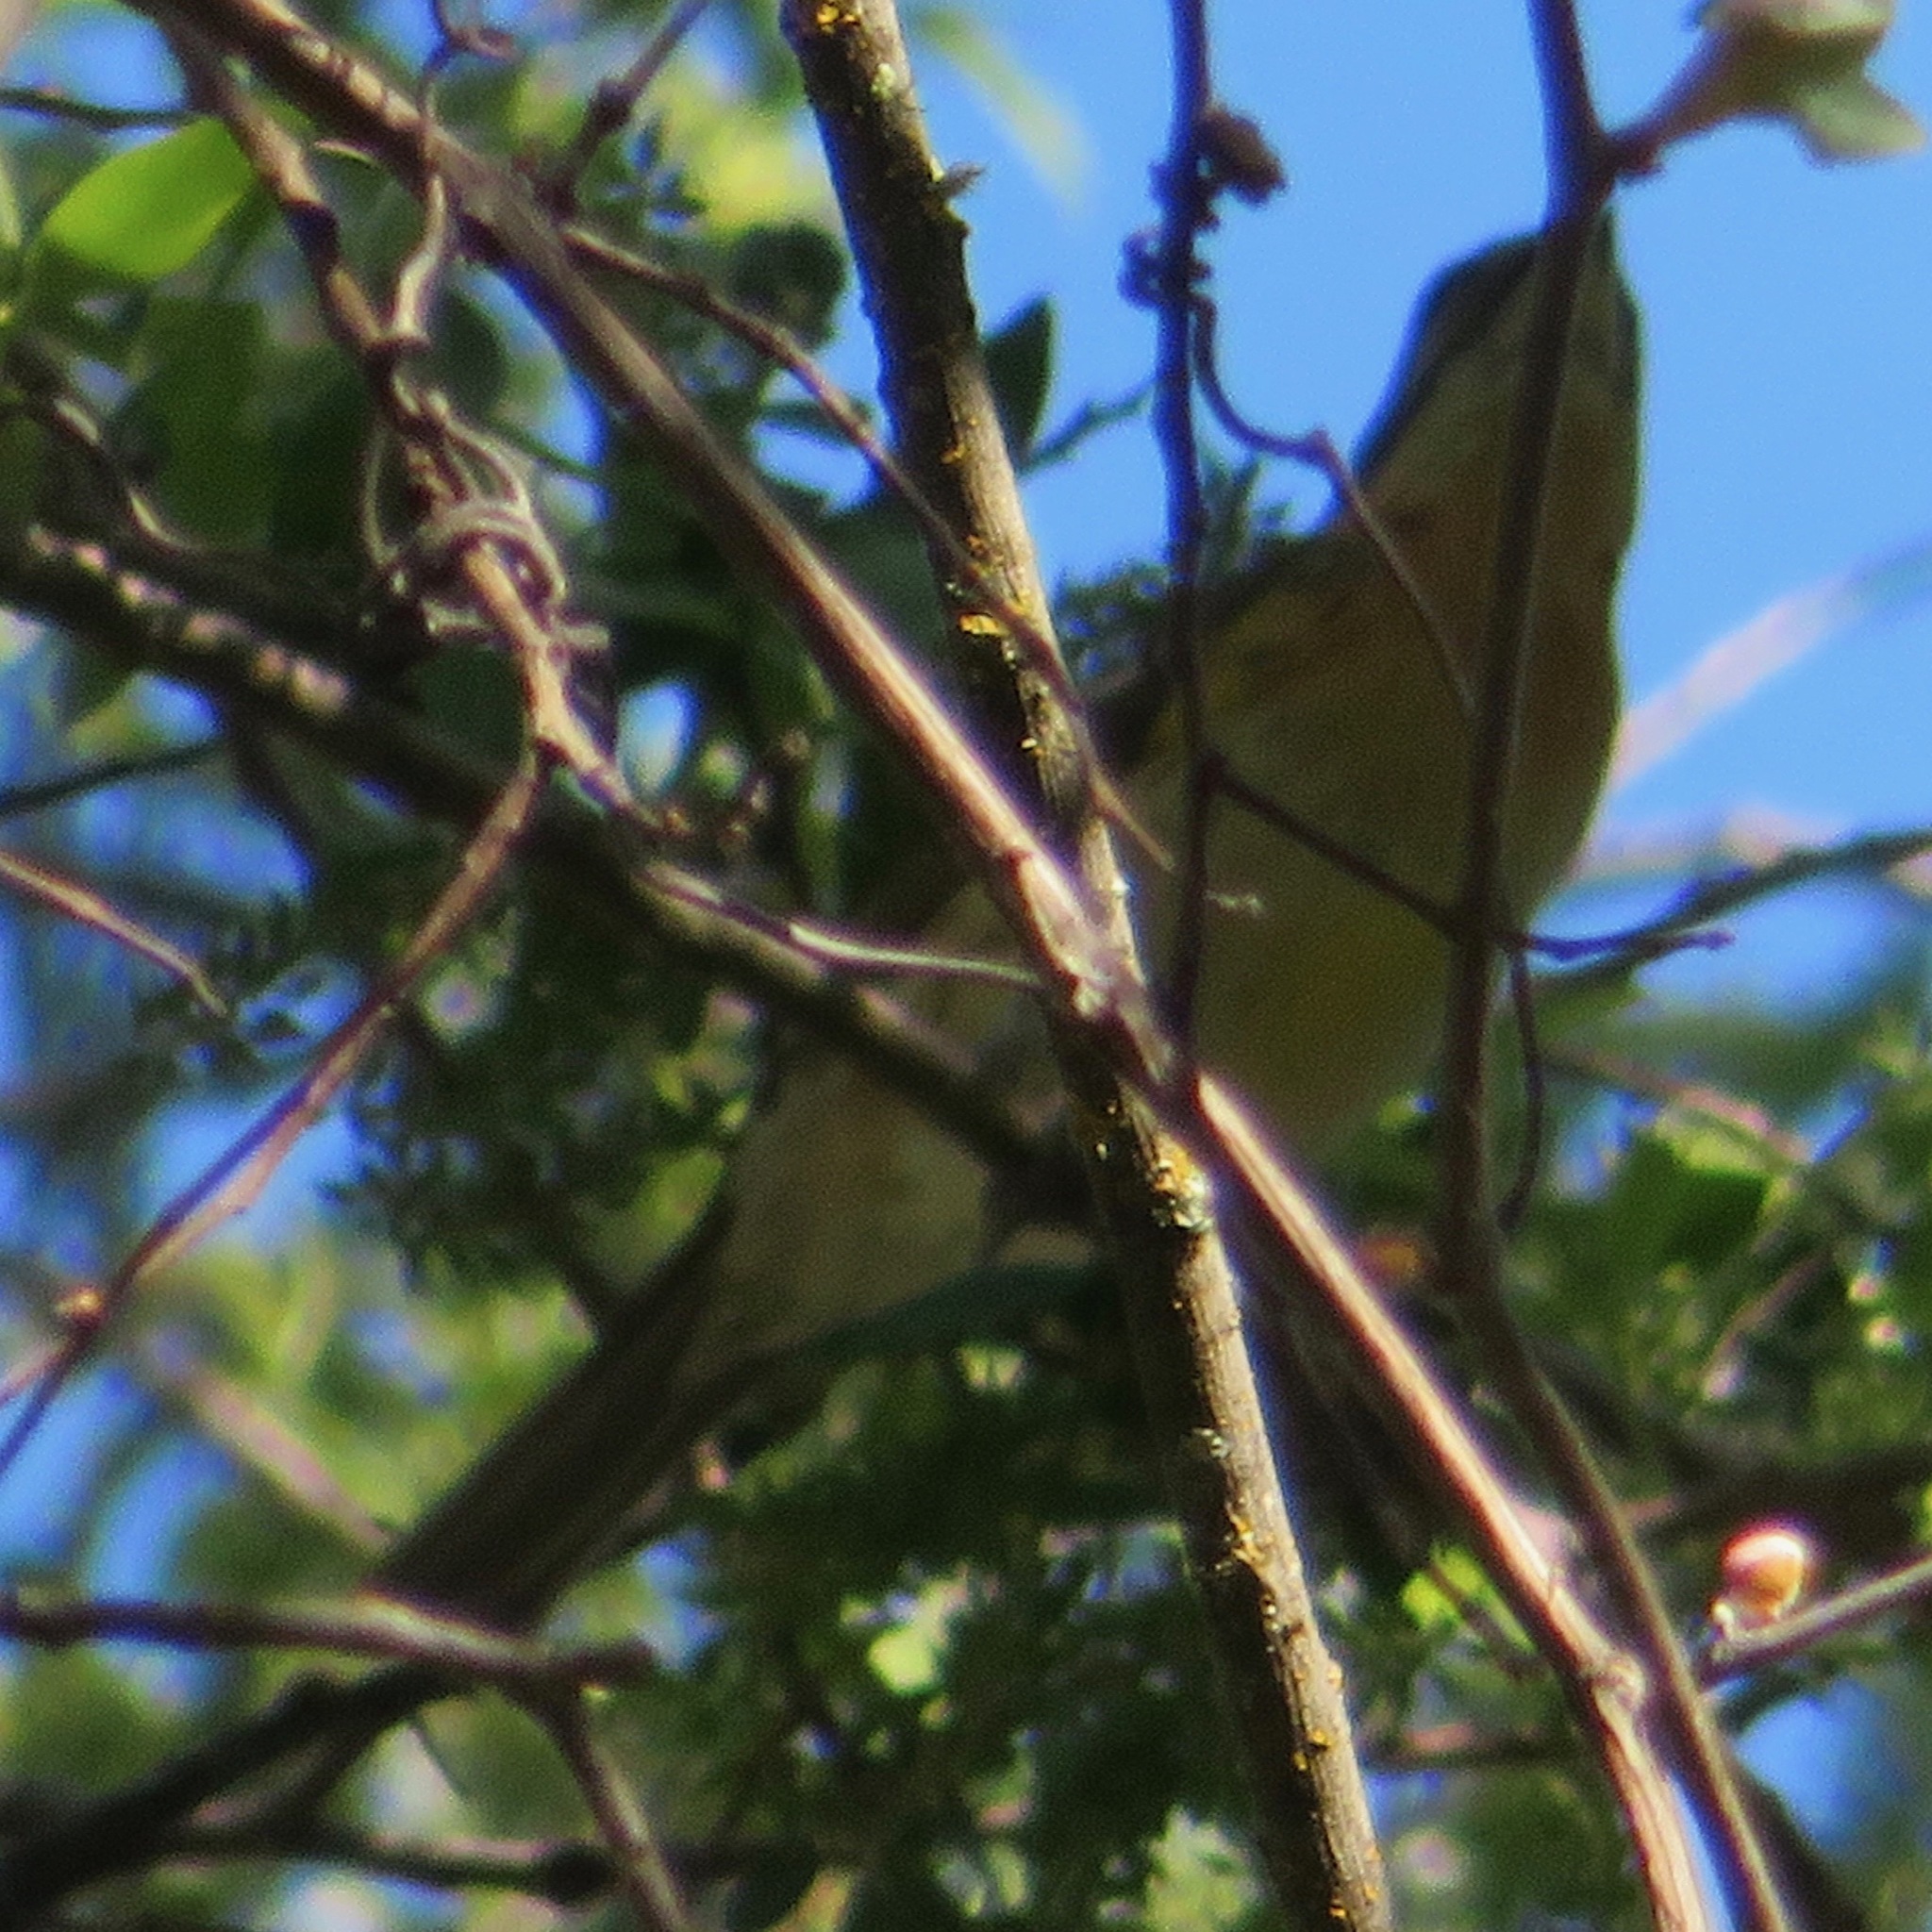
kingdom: Animalia
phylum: Chordata
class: Aves
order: Passeriformes
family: Cardinalidae
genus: Pheucticus
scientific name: Pheucticus melanocephalus
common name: Black-headed grosbeak
